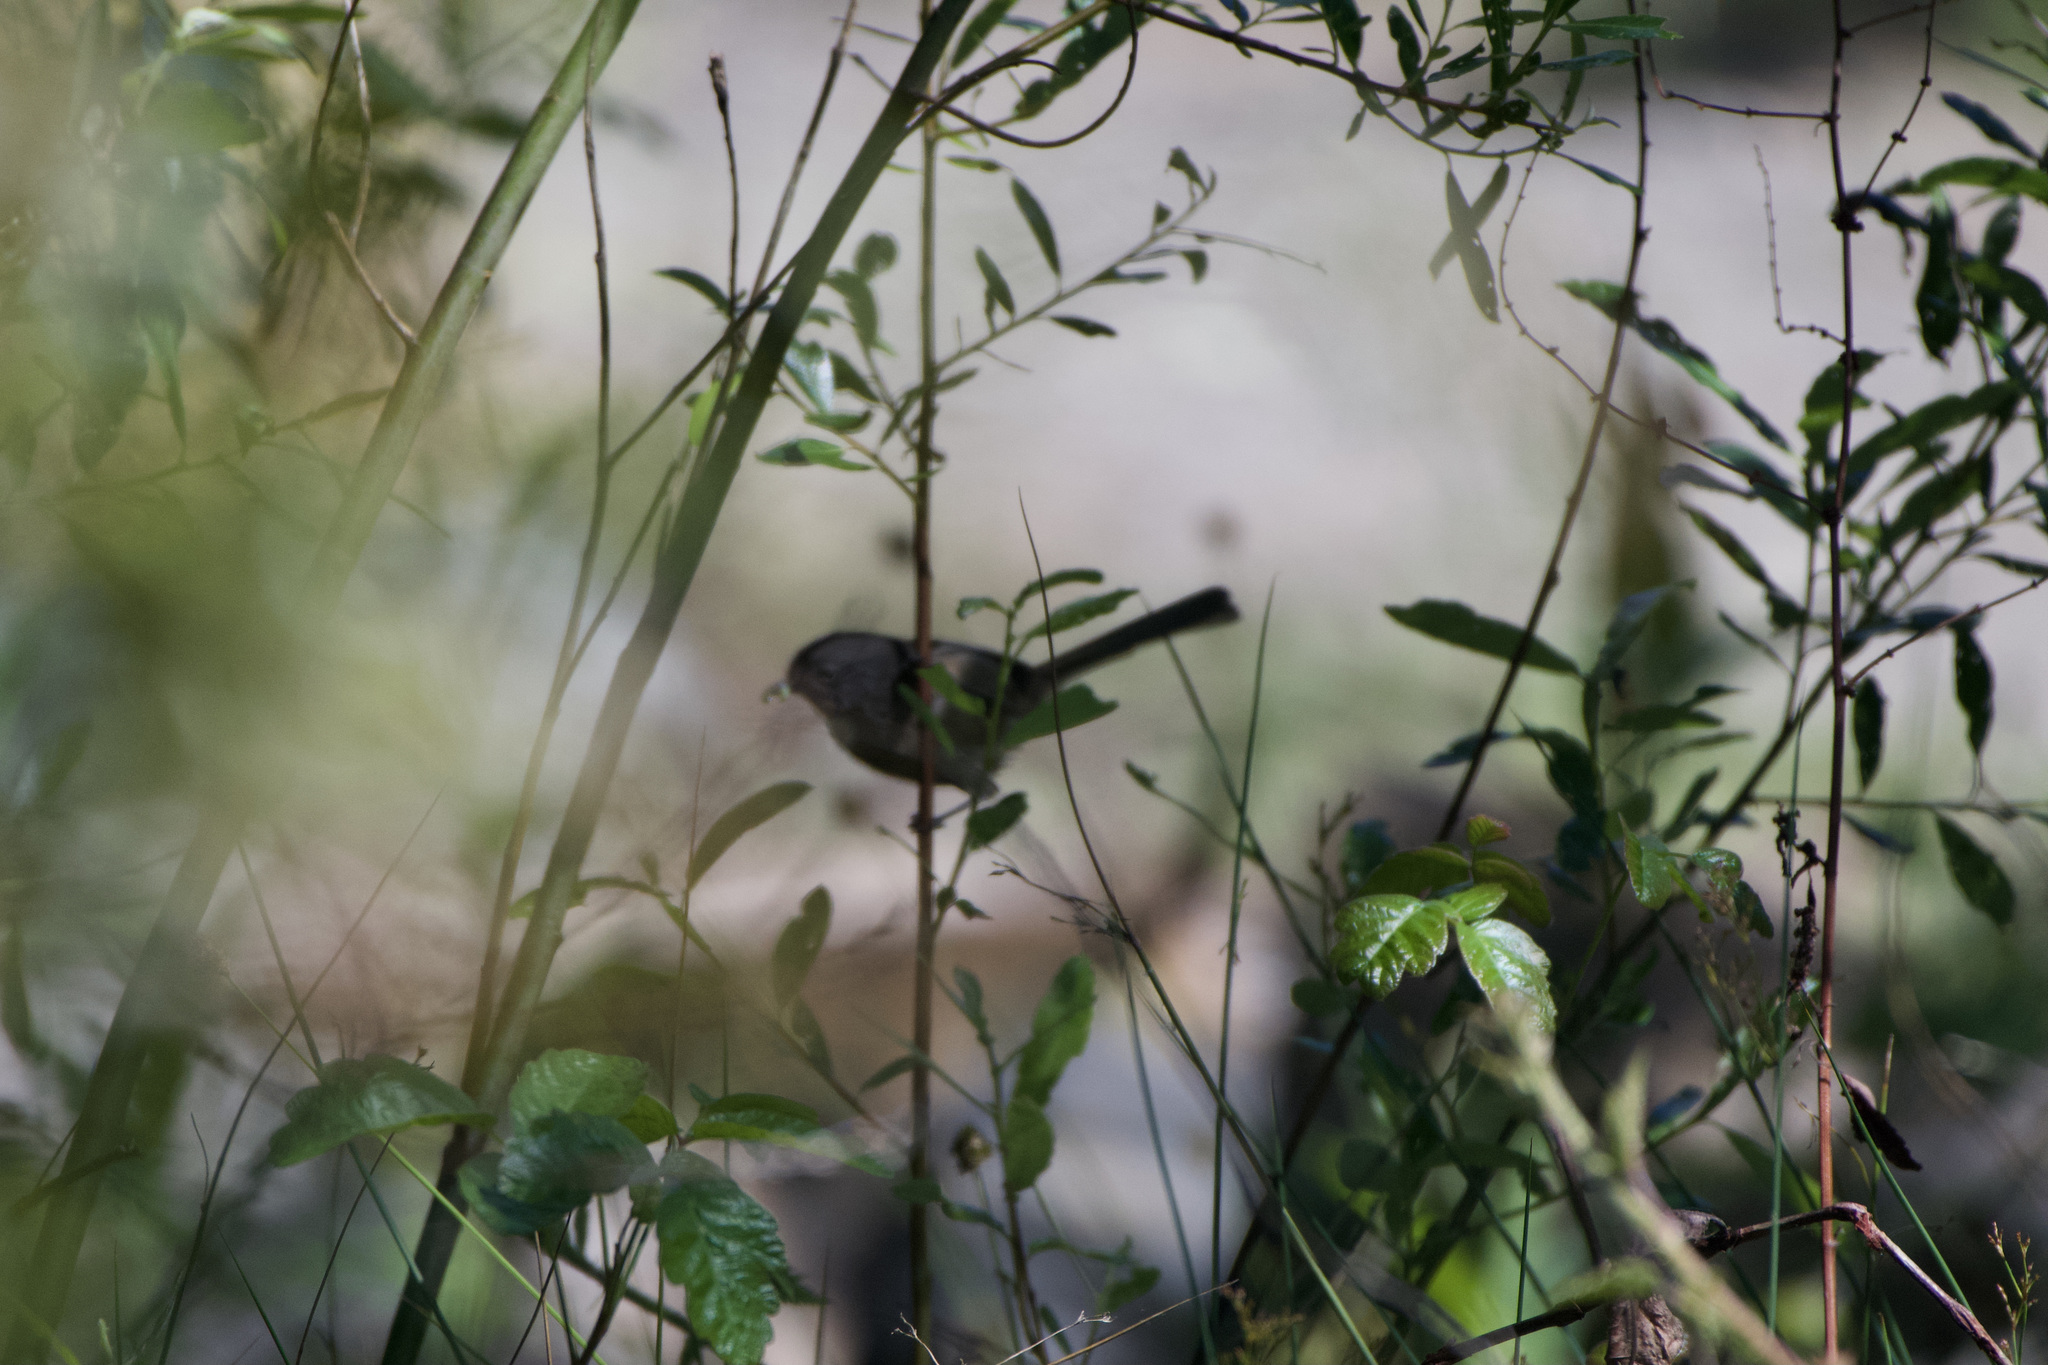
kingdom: Animalia
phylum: Chordata
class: Aves
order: Passeriformes
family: Sylviidae
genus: Chamaea
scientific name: Chamaea fasciata
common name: Wrentit
